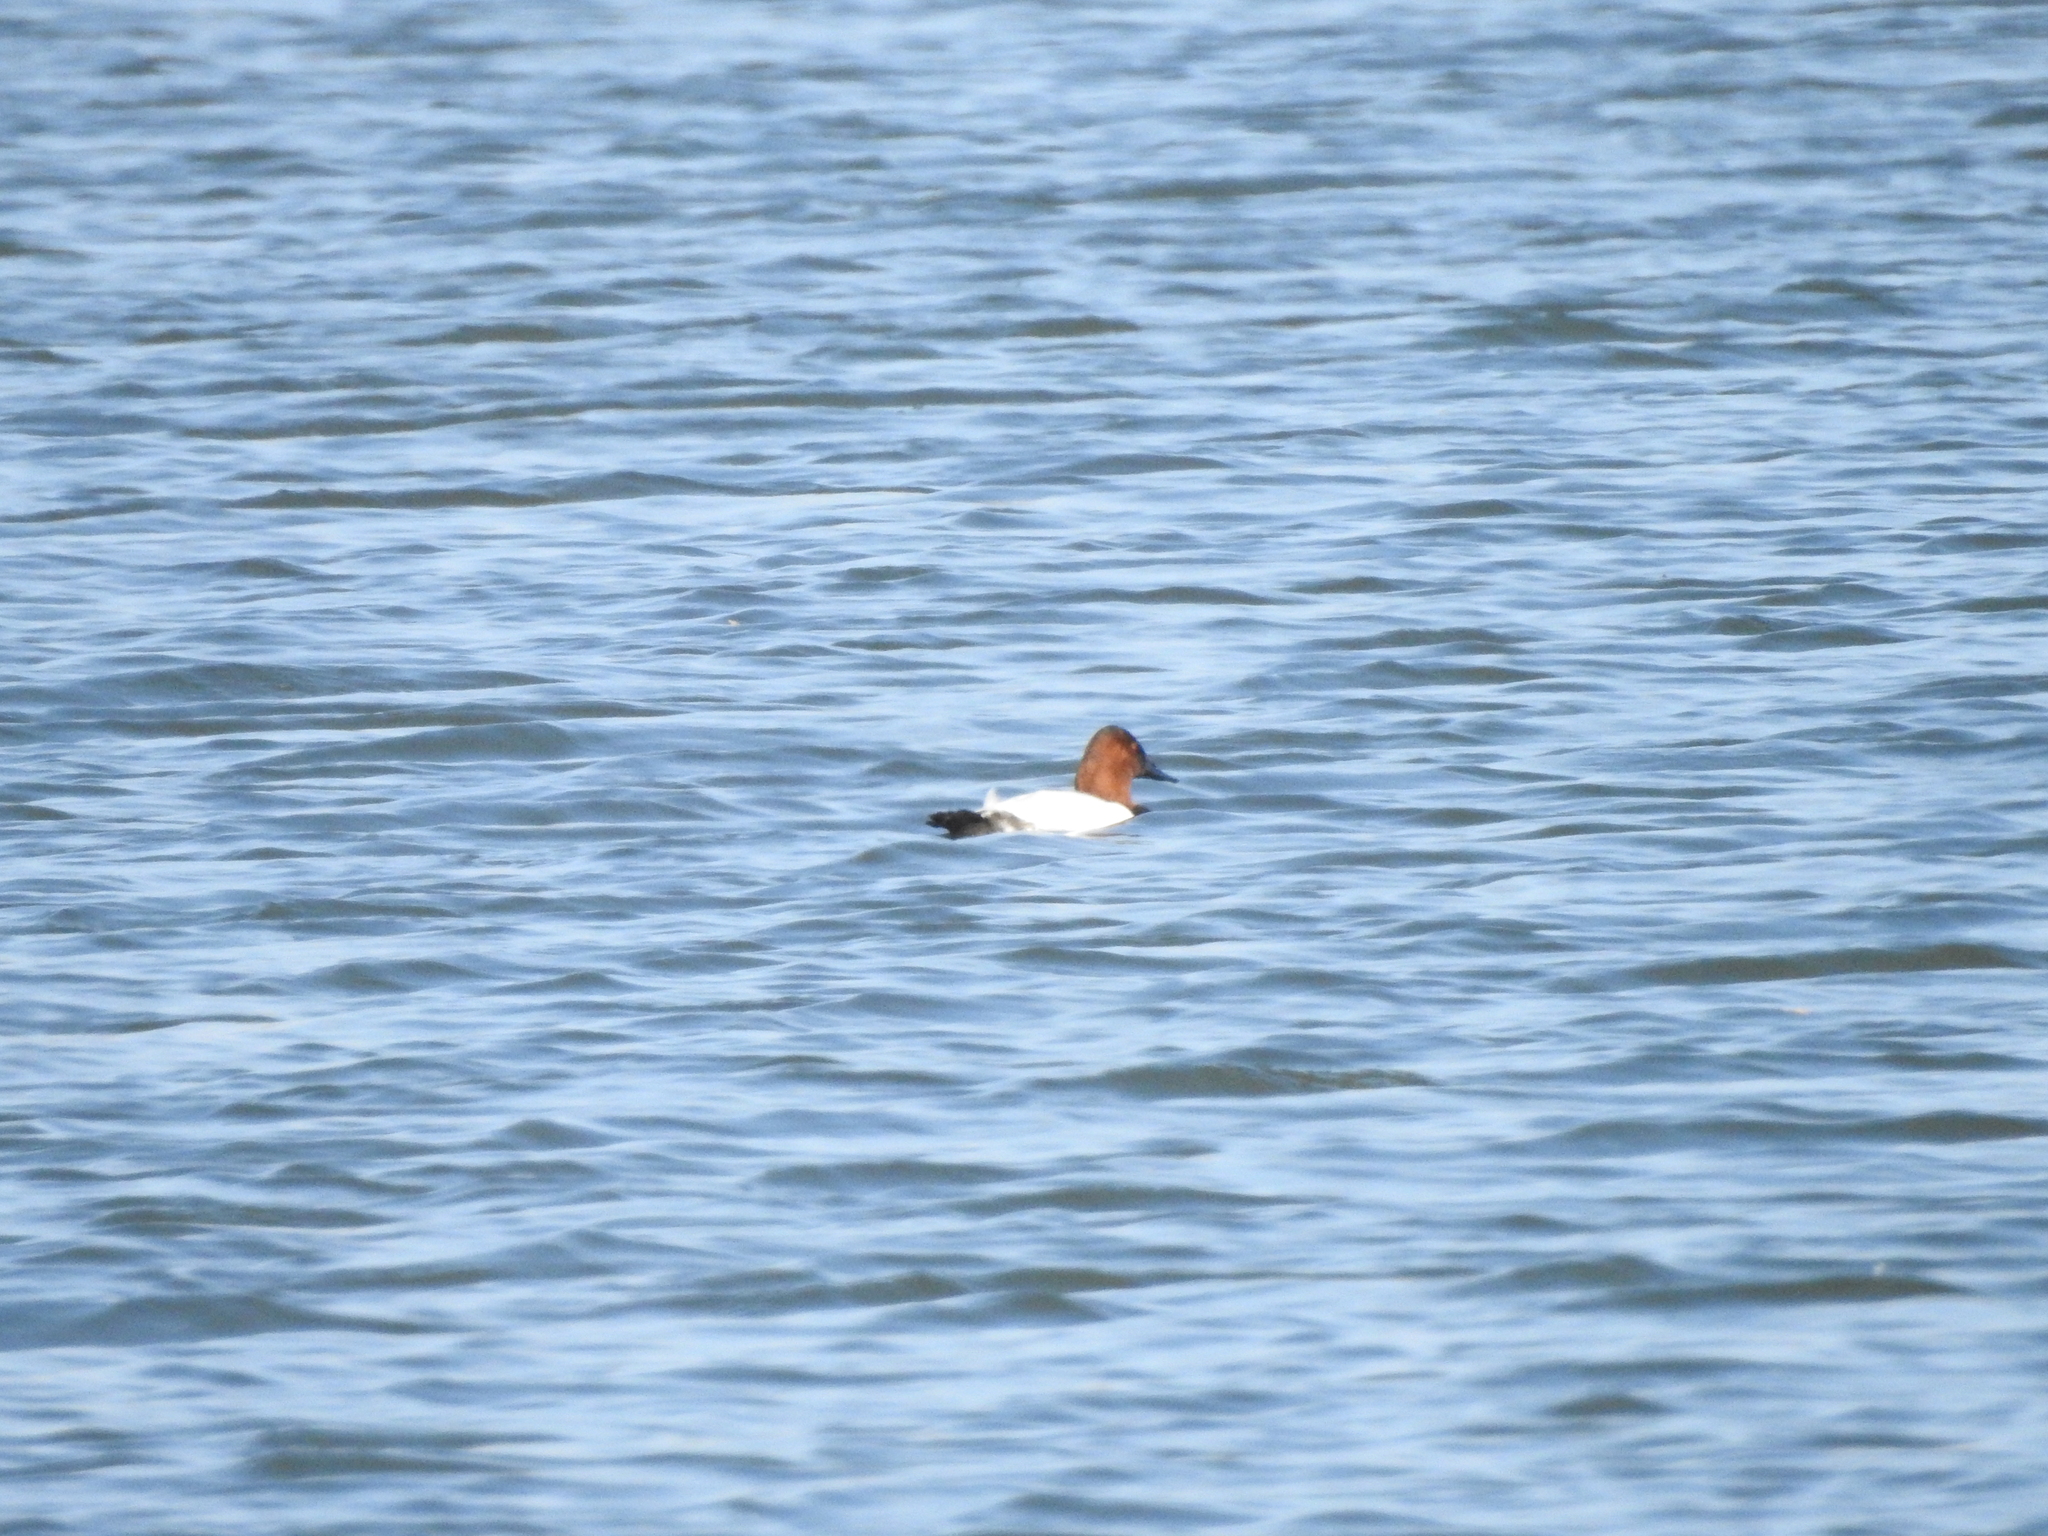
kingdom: Animalia
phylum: Chordata
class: Aves
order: Anseriformes
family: Anatidae
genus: Aythya
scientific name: Aythya valisineria
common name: Canvasback
